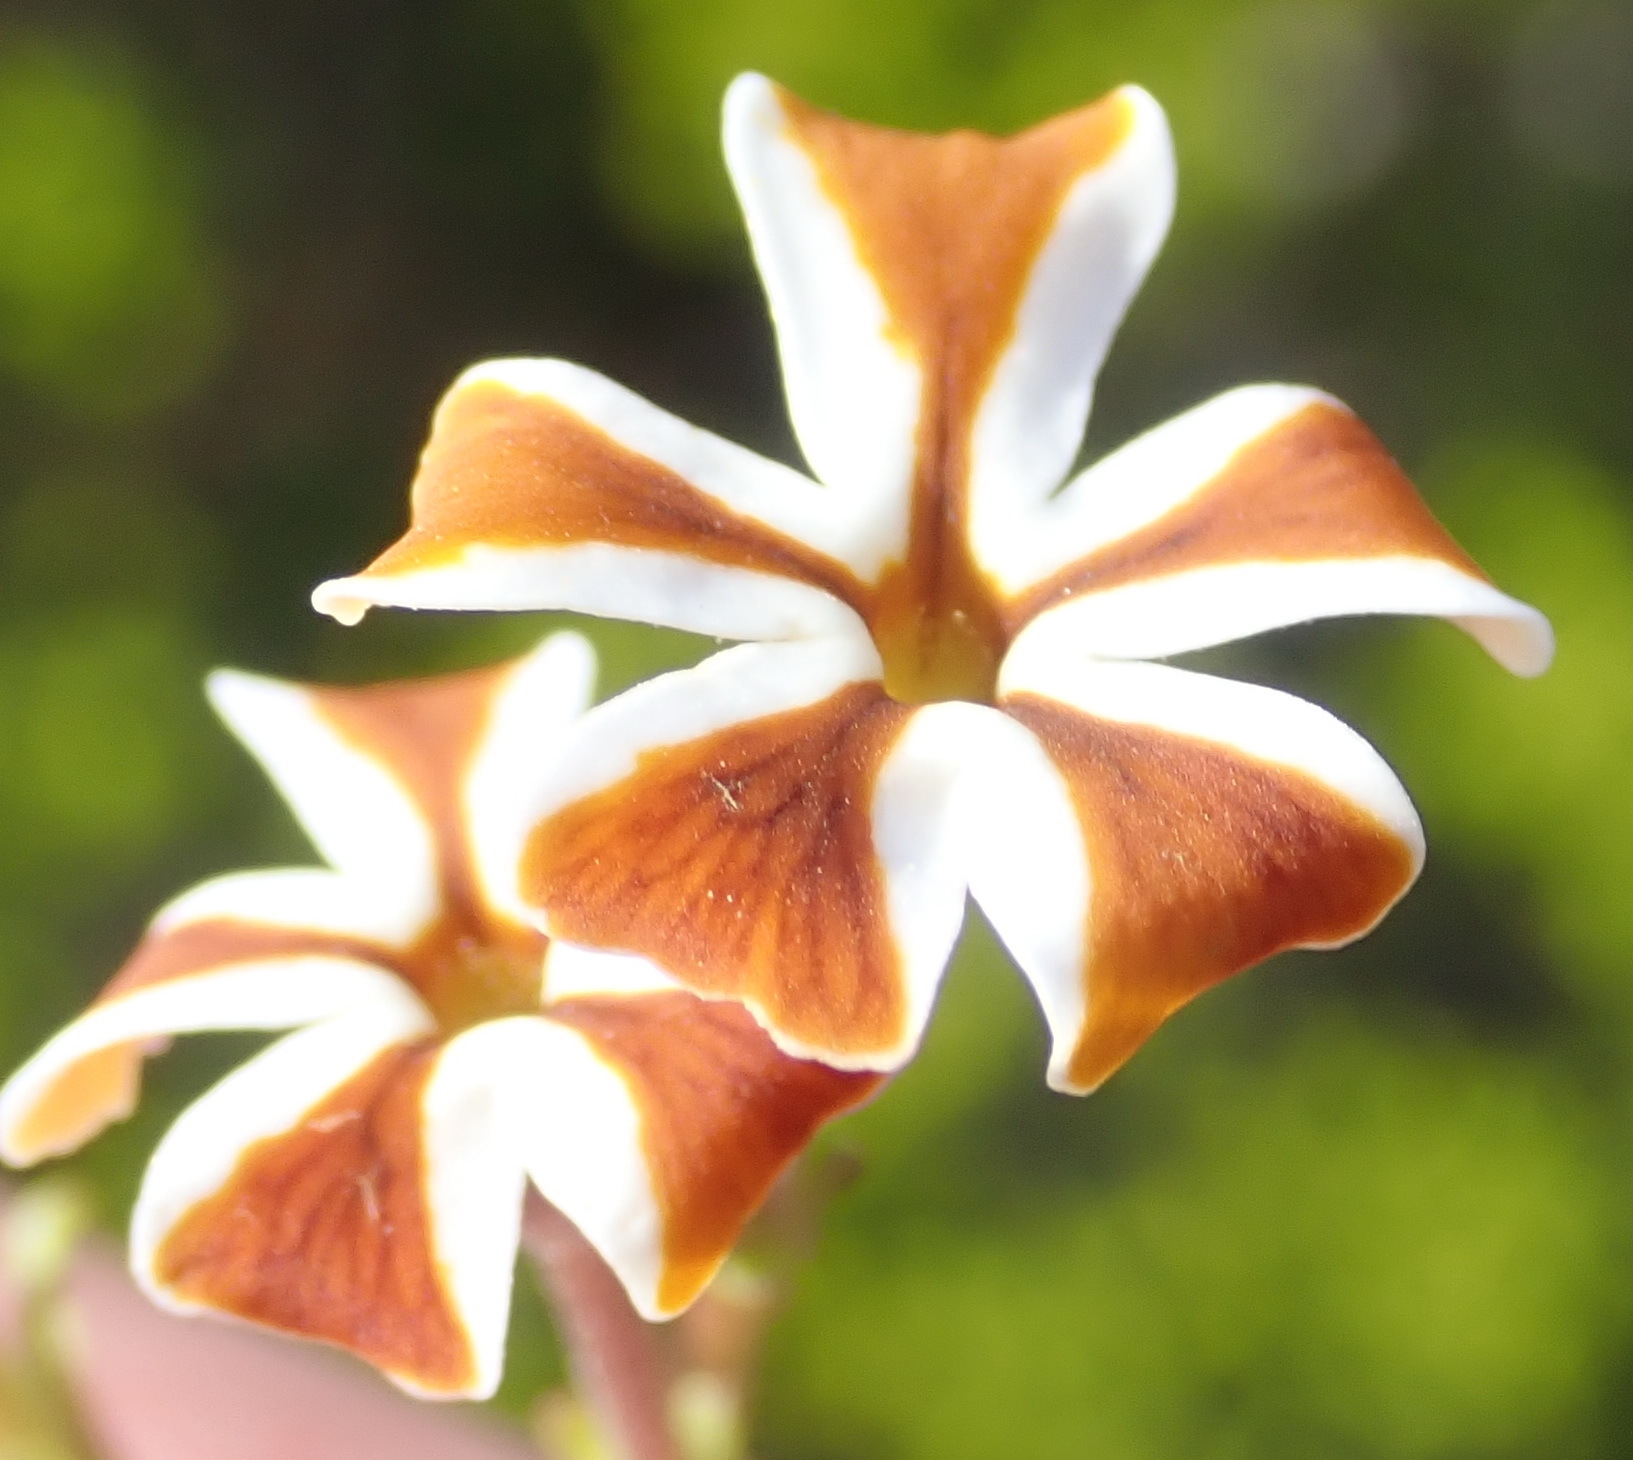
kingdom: Plantae
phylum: Tracheophyta
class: Magnoliopsida
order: Lamiales
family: Scrophulariaceae
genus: Jamesbrittenia
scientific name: Jamesbrittenia albomarginata
